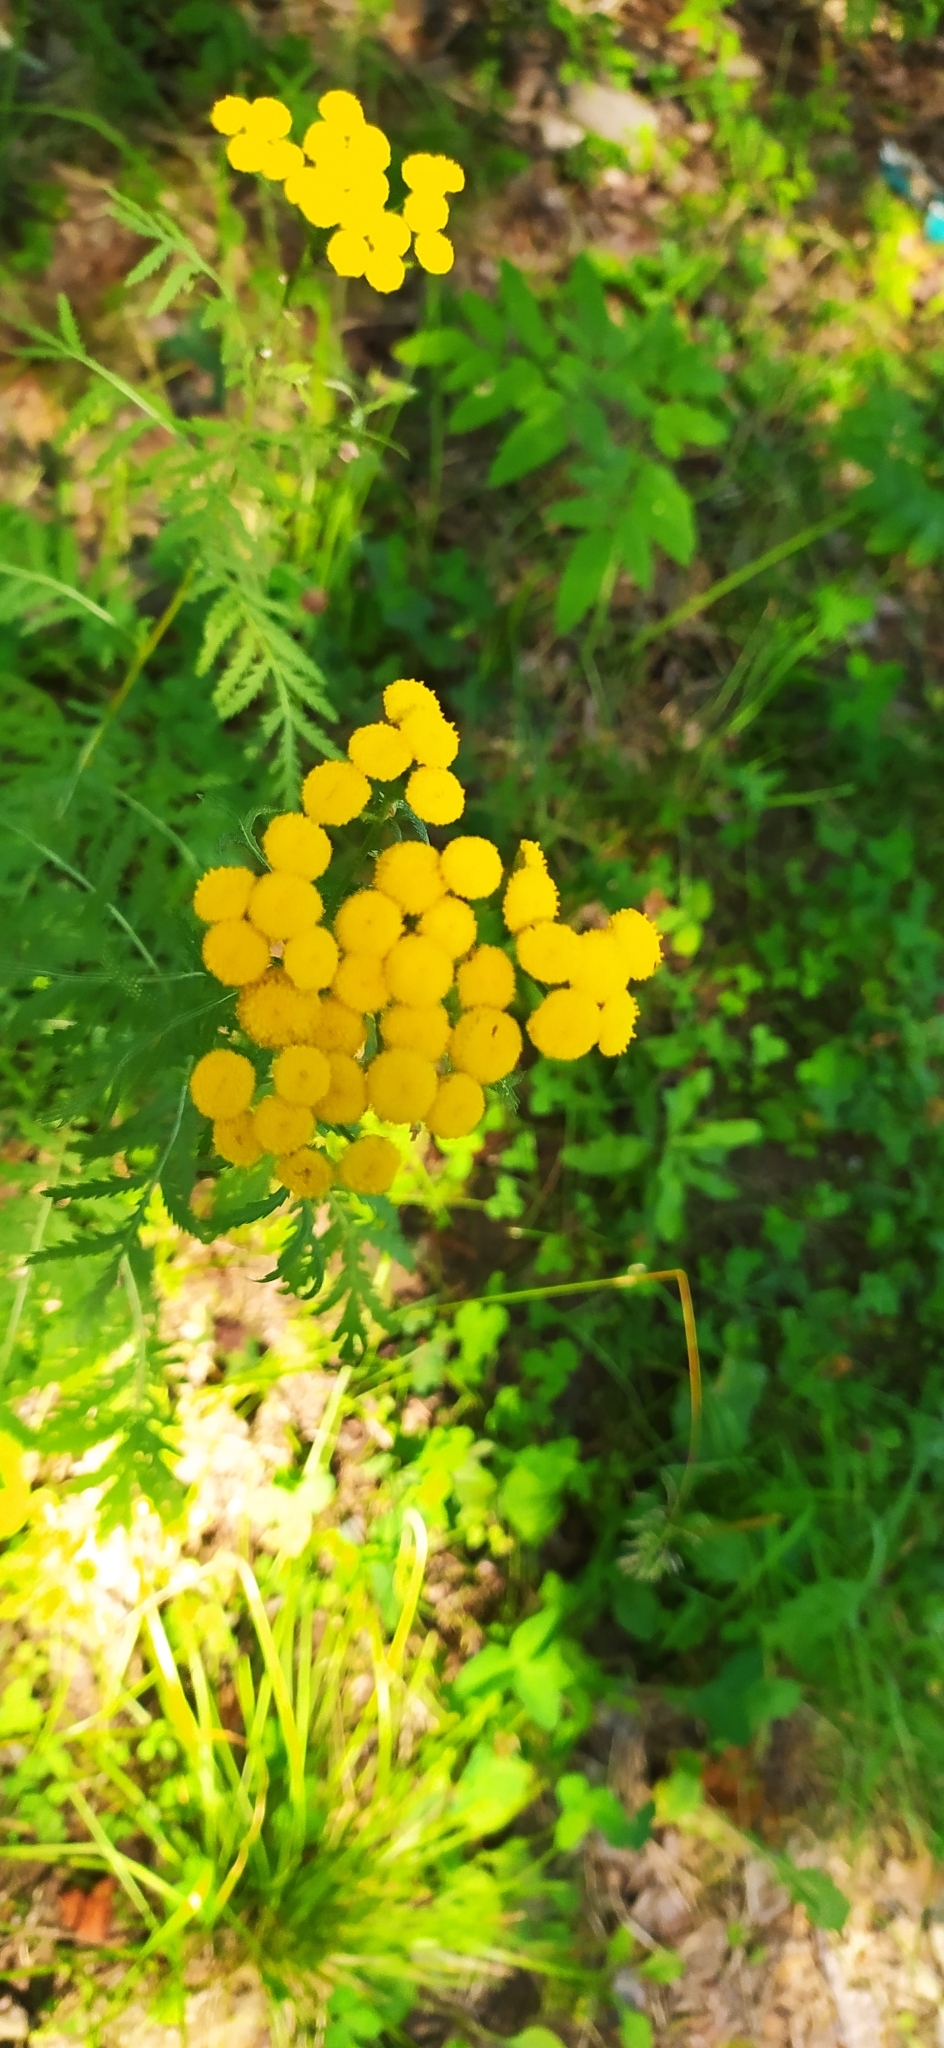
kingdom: Plantae
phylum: Tracheophyta
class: Magnoliopsida
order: Asterales
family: Asteraceae
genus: Tanacetum
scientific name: Tanacetum vulgare
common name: Common tansy
